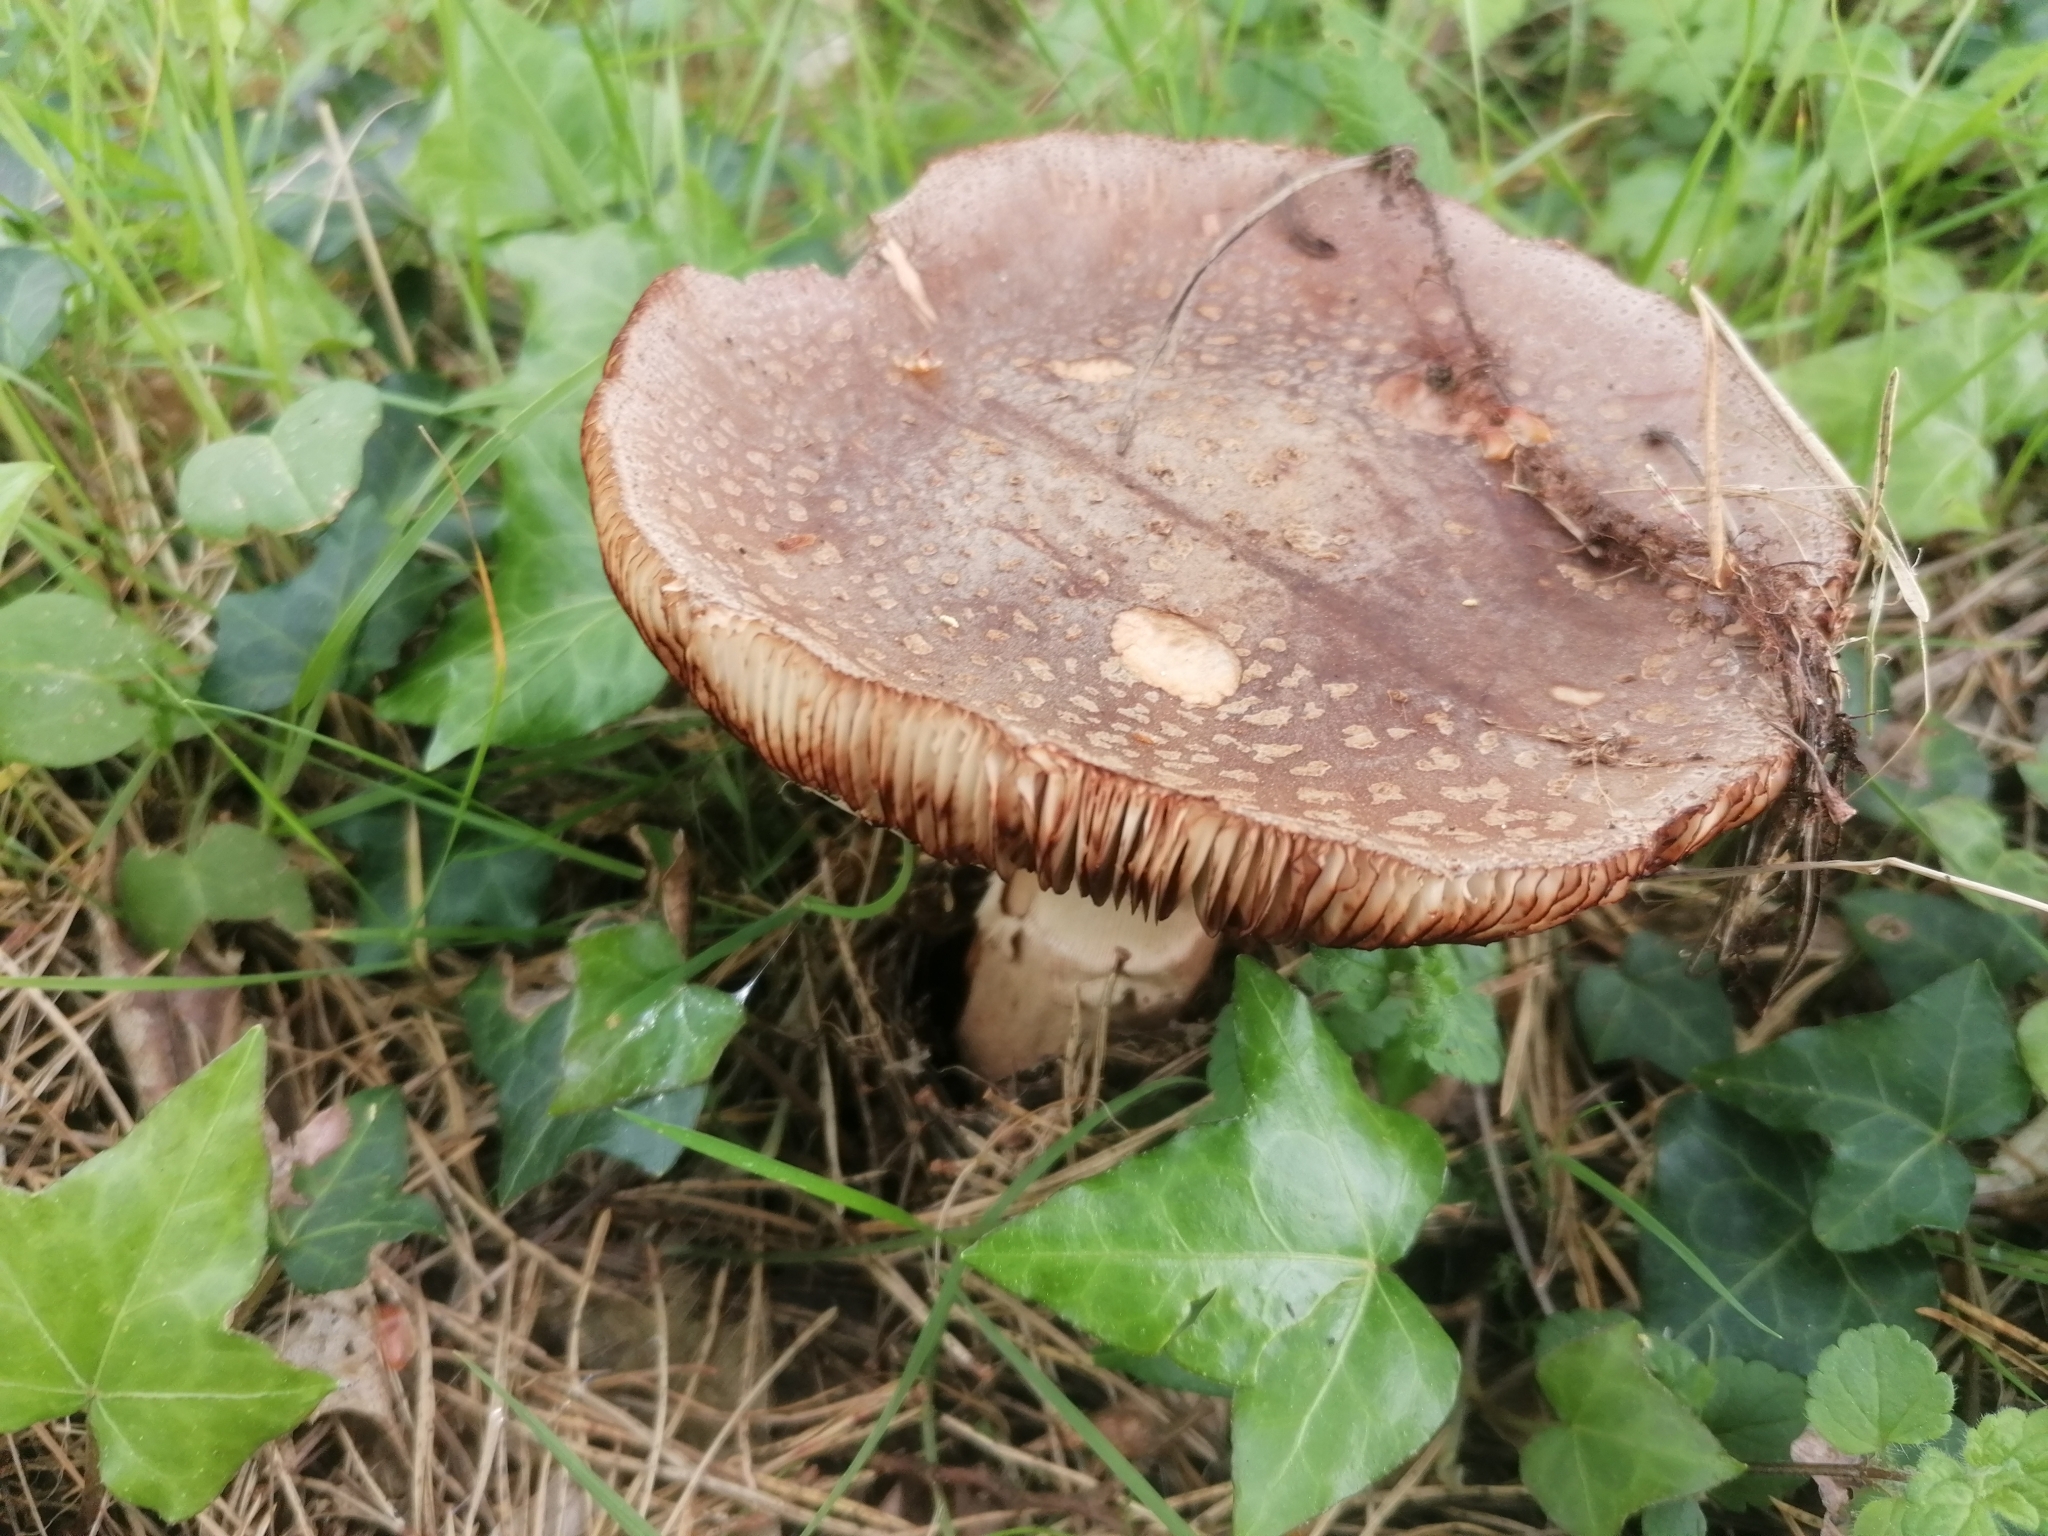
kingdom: Fungi
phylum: Basidiomycota
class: Agaricomycetes
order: Agaricales
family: Amanitaceae
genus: Amanita
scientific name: Amanita rubescens
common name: Blusher
